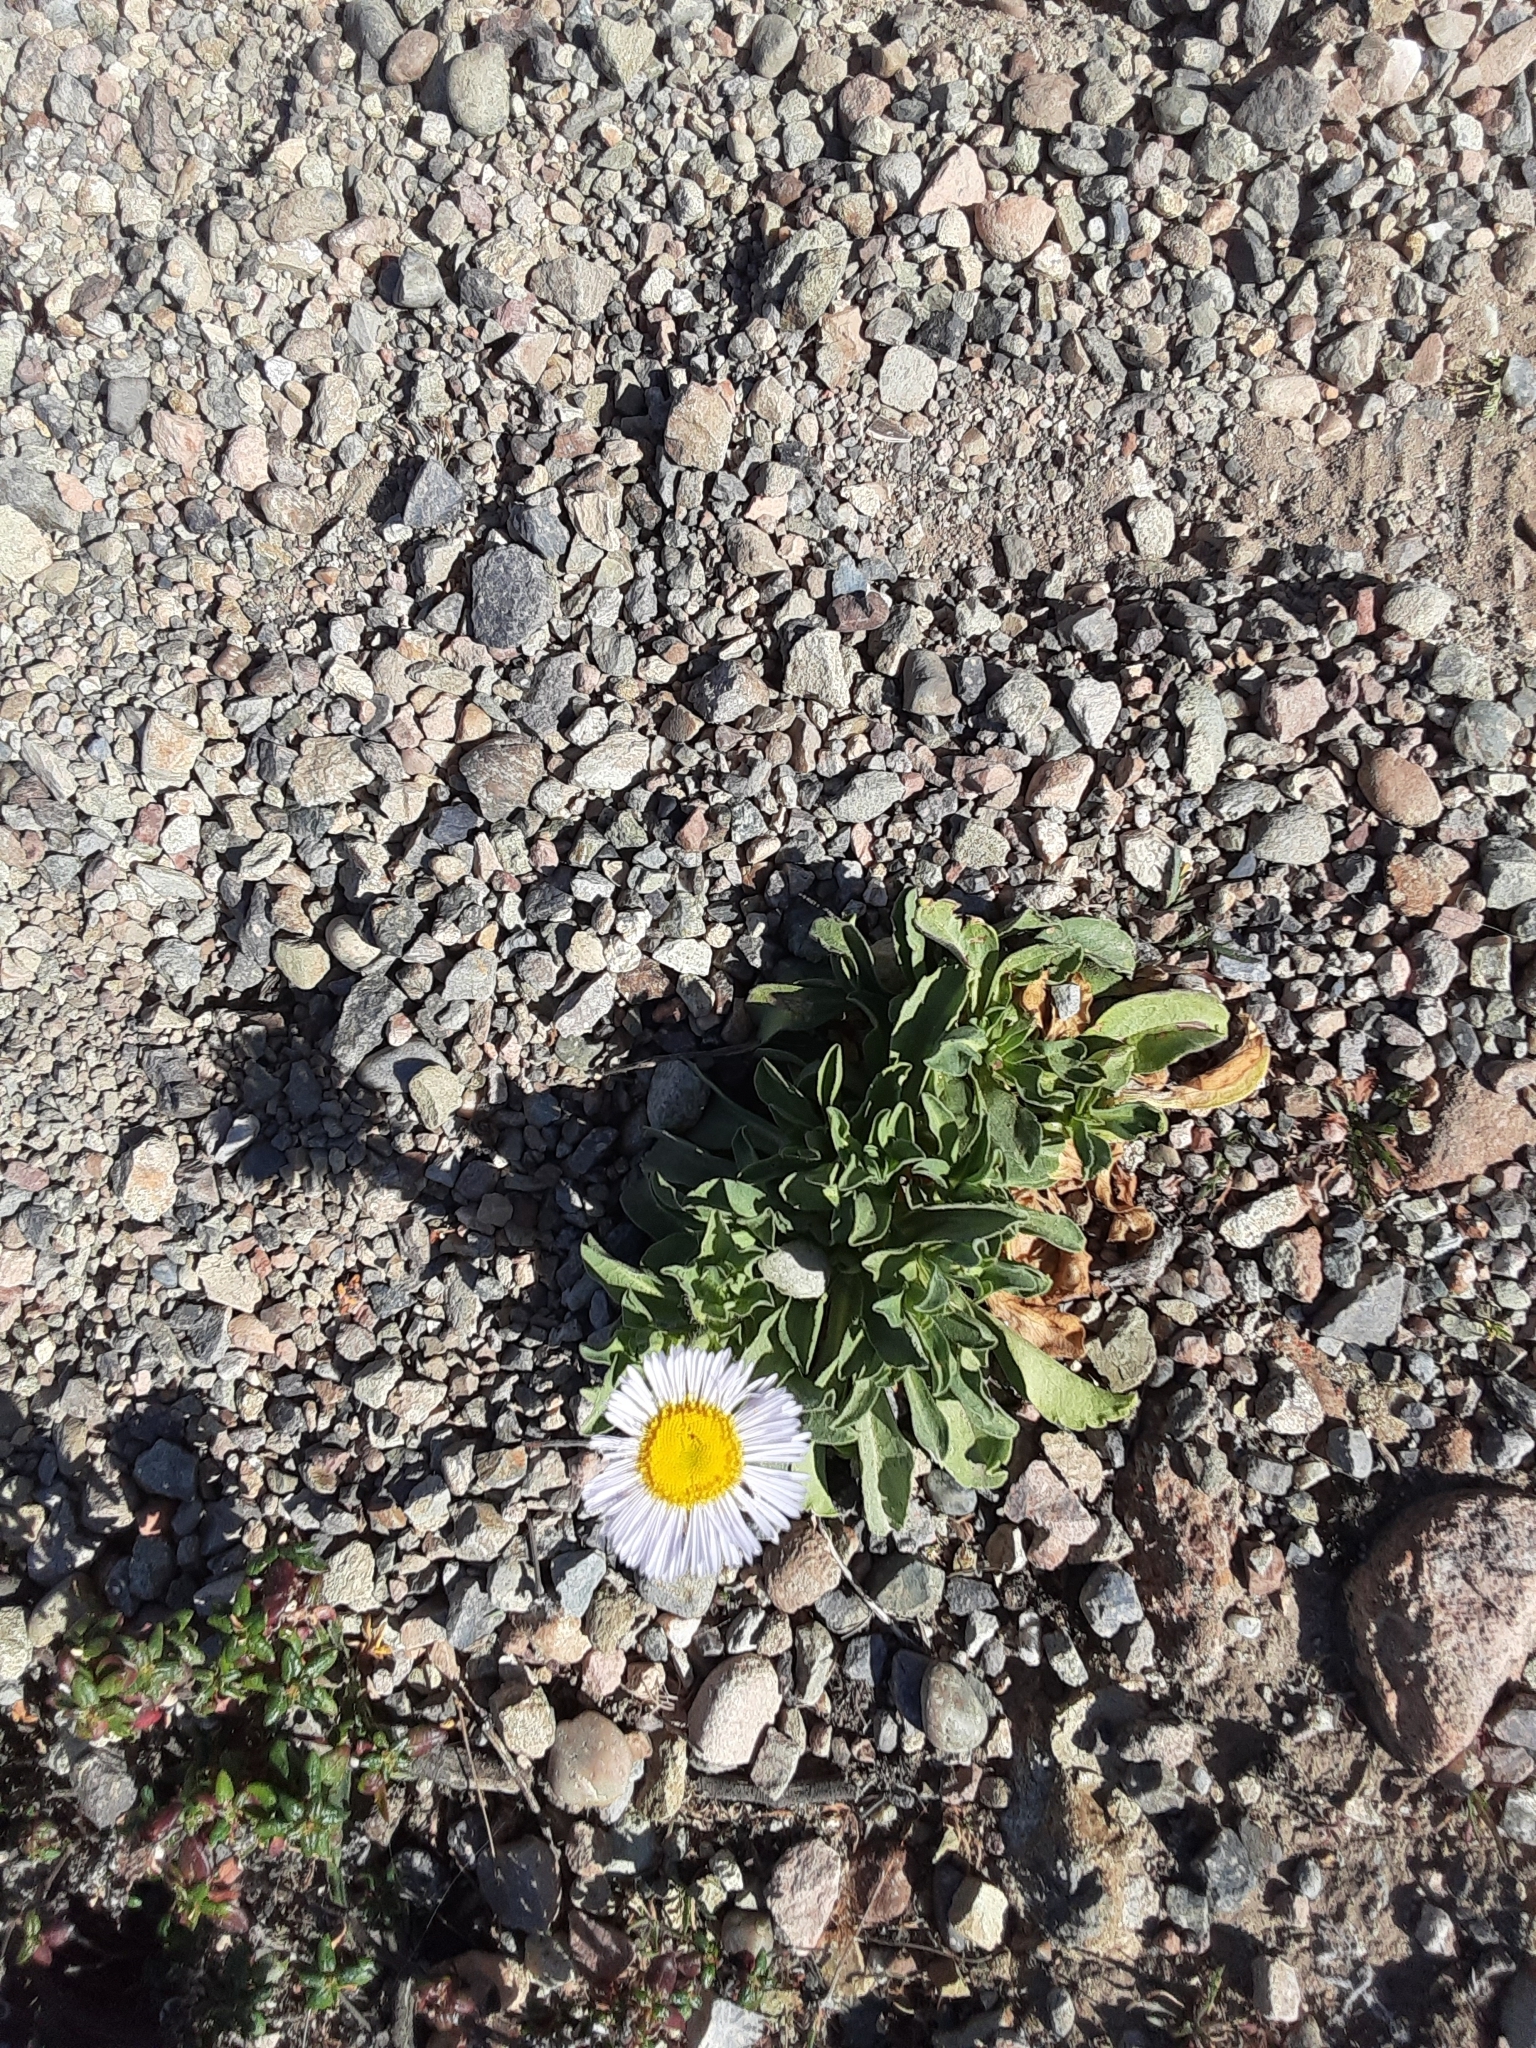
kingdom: Plantae
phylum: Tracheophyta
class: Magnoliopsida
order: Asterales
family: Asteraceae
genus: Erigeron
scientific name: Erigeron glaucus
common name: Seaside daisy
